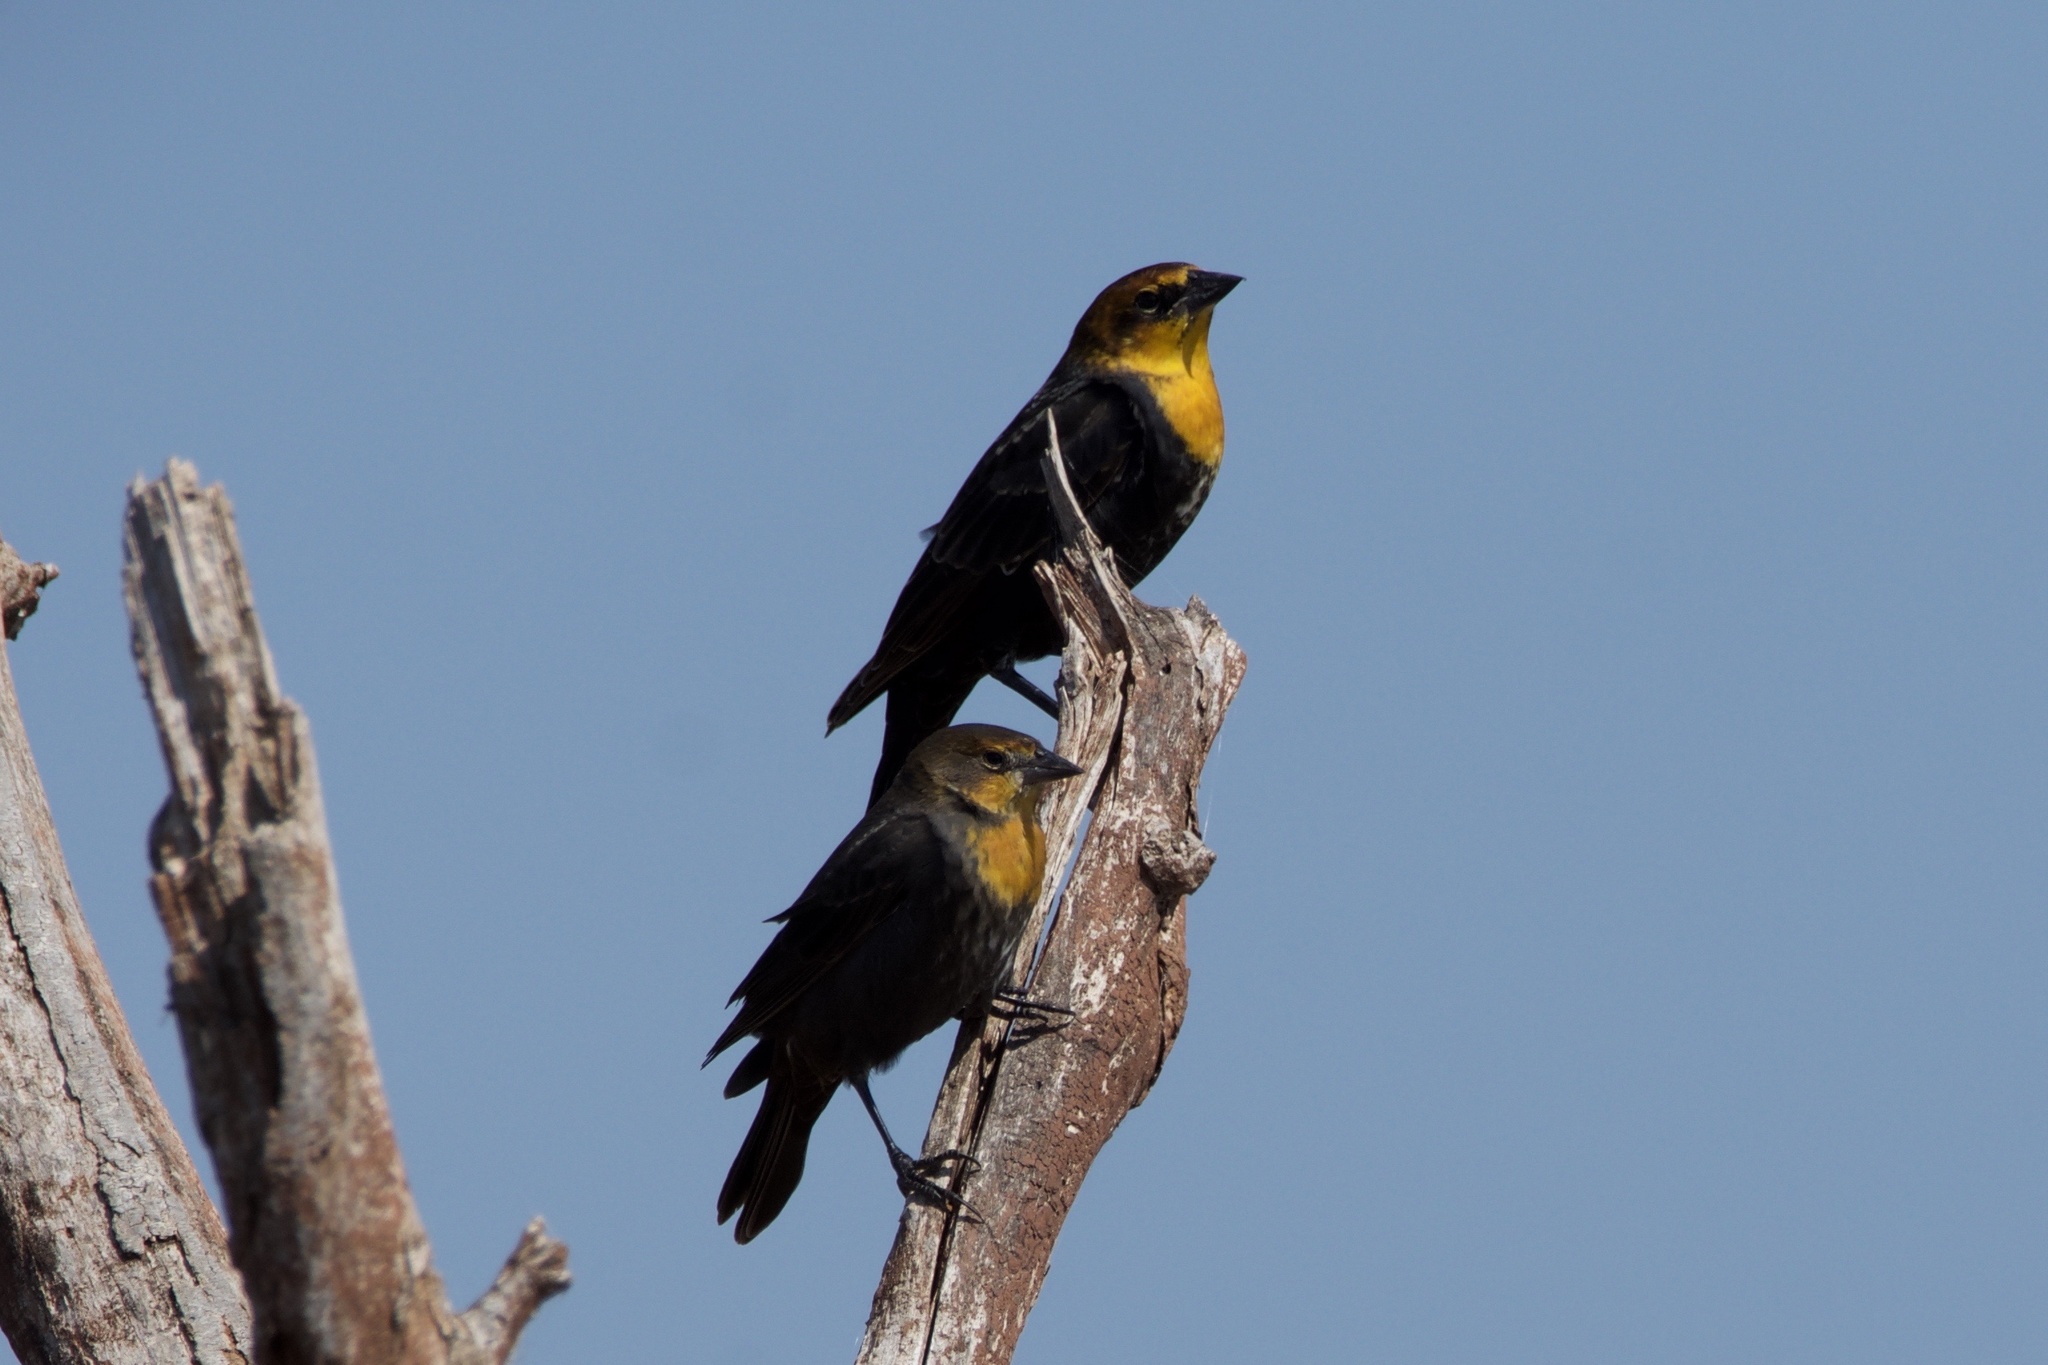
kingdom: Animalia
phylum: Chordata
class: Aves
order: Passeriformes
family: Icteridae
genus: Xanthocephalus
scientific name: Xanthocephalus xanthocephalus
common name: Yellow-headed blackbird
